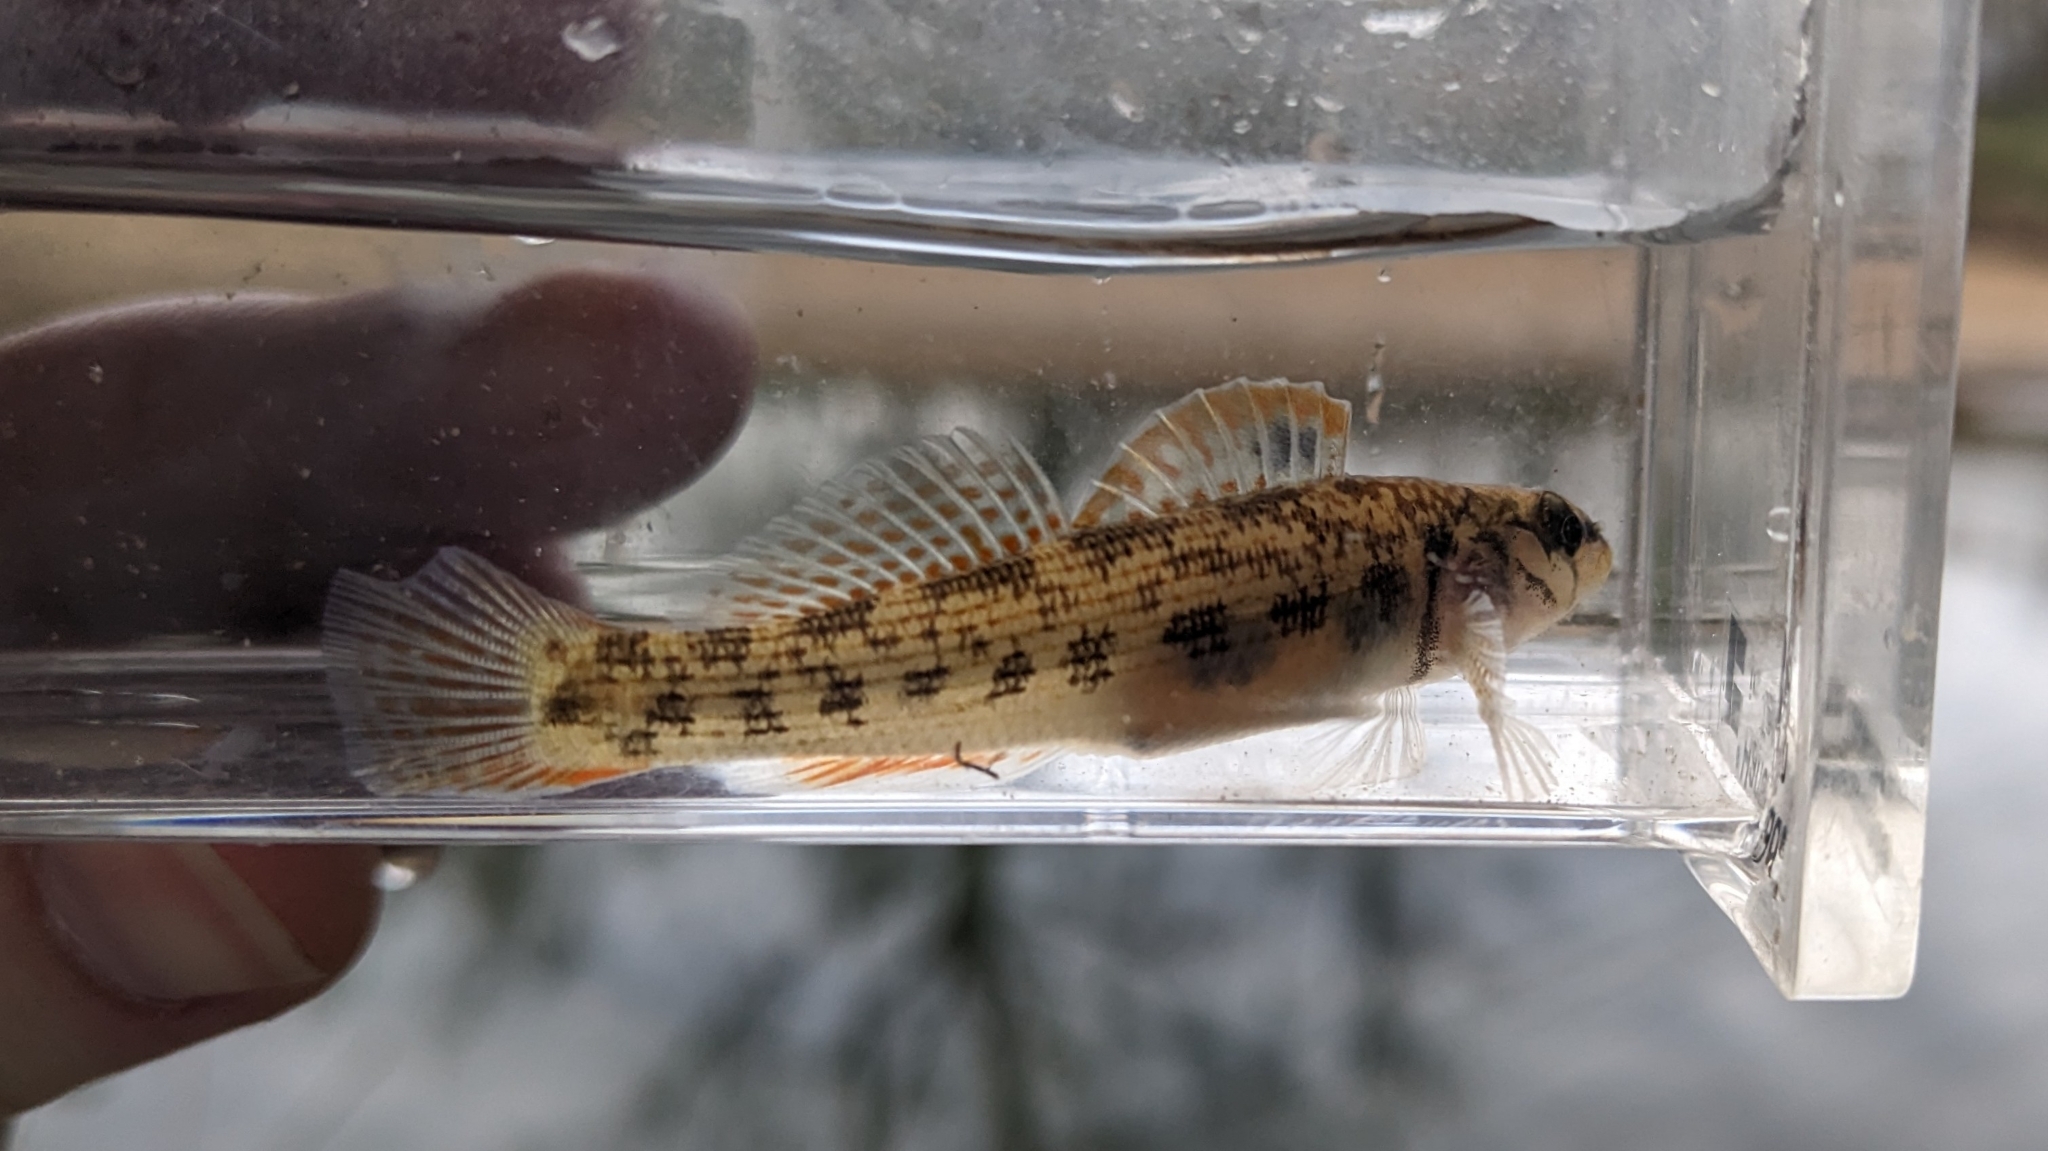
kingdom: Animalia
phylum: Chordata
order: Perciformes
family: Percidae
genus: Etheostoma
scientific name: Etheostoma derivativum
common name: Stone darter
